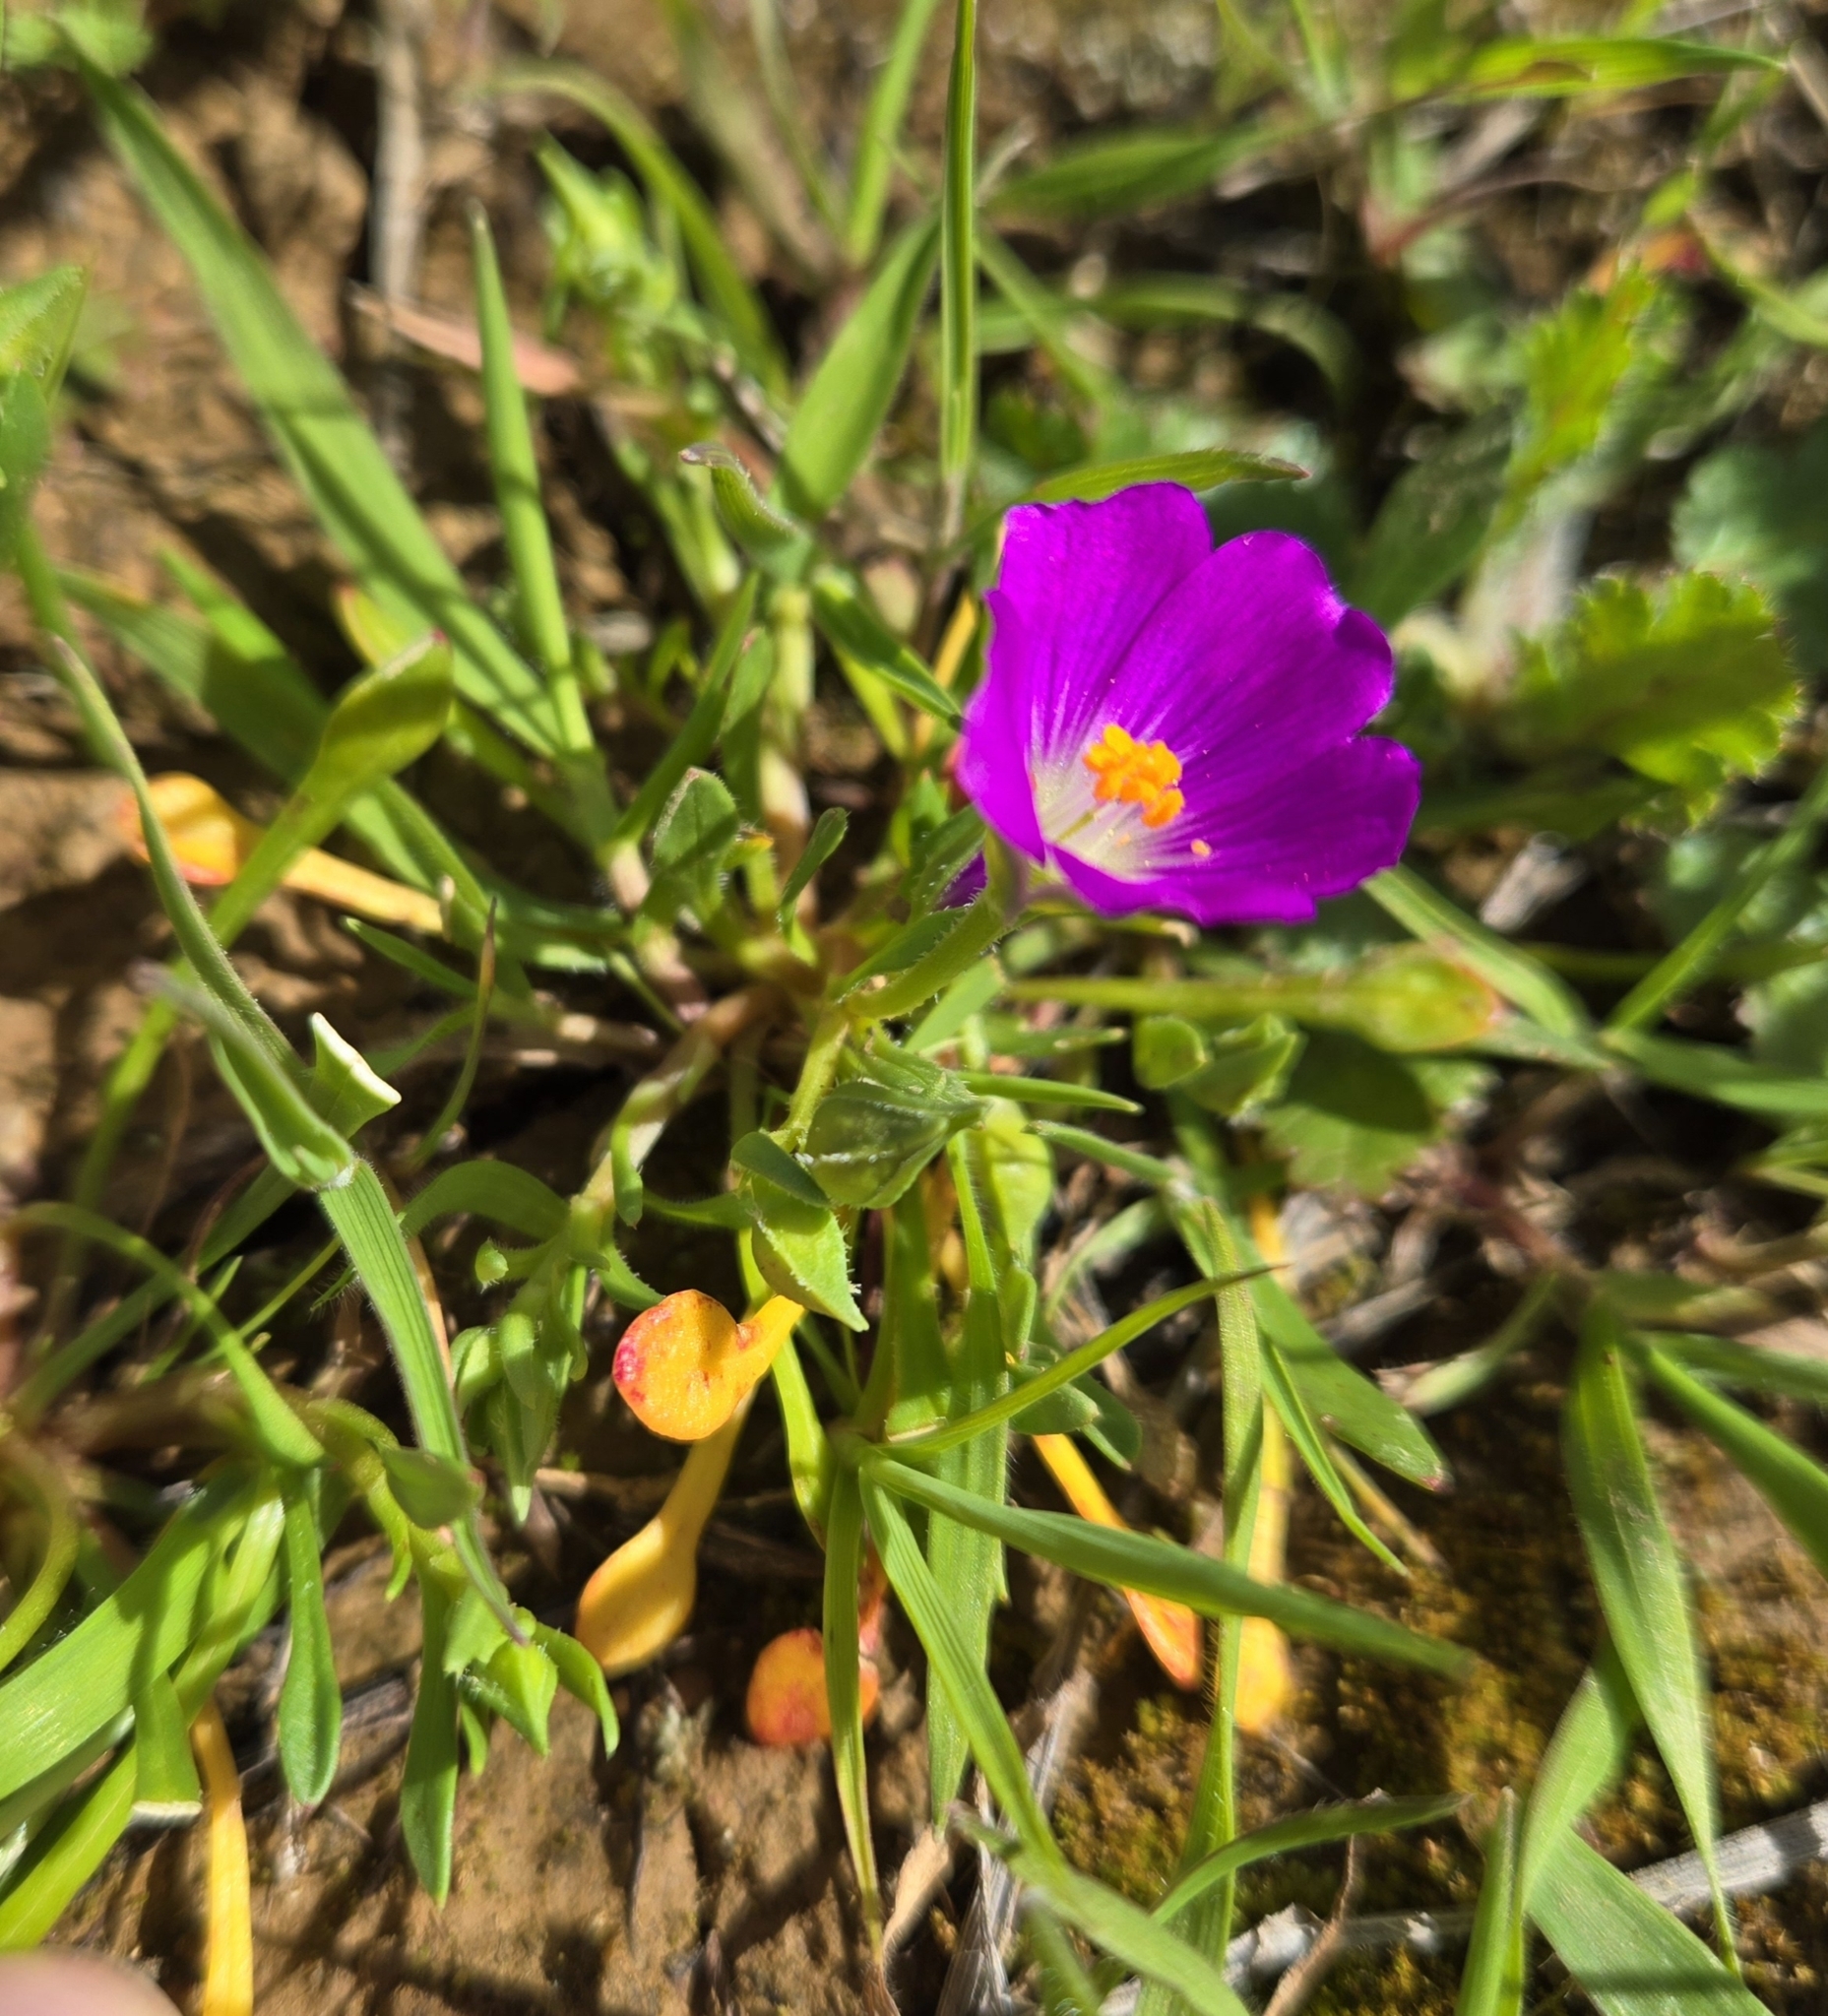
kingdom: Plantae
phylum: Tracheophyta
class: Magnoliopsida
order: Caryophyllales
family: Montiaceae
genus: Calandrinia
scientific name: Calandrinia menziesii
